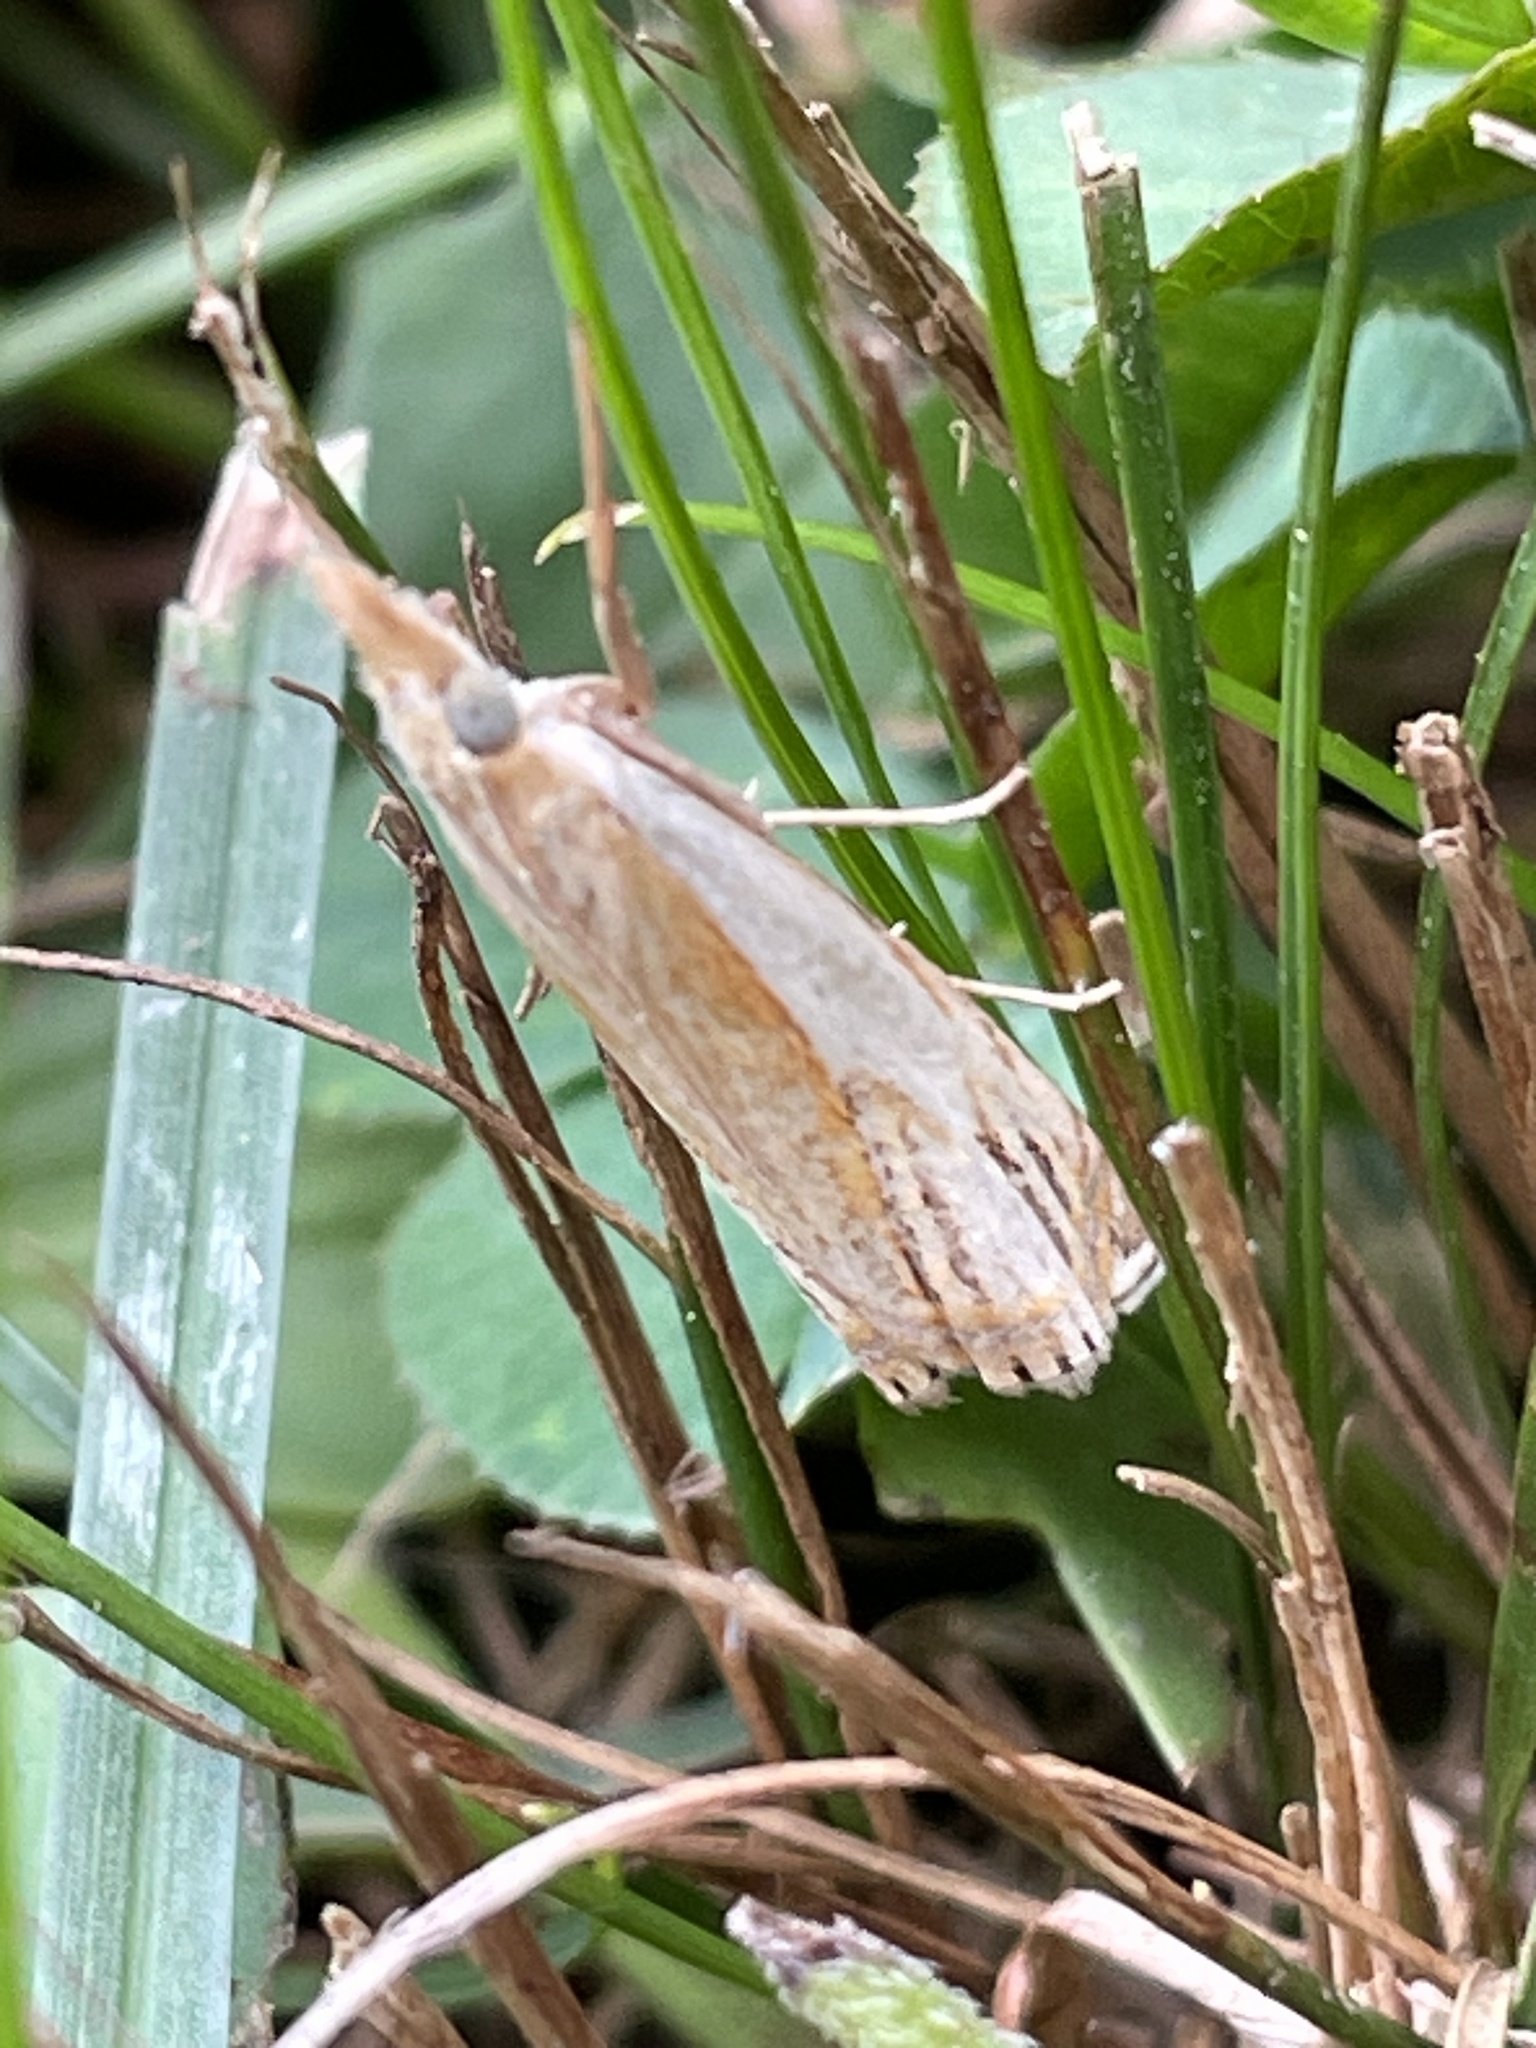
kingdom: Animalia
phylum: Arthropoda
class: Insecta
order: Lepidoptera
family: Crambidae
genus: Crambus
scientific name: Crambus agitatellus
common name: Double-banded grass-veneer
